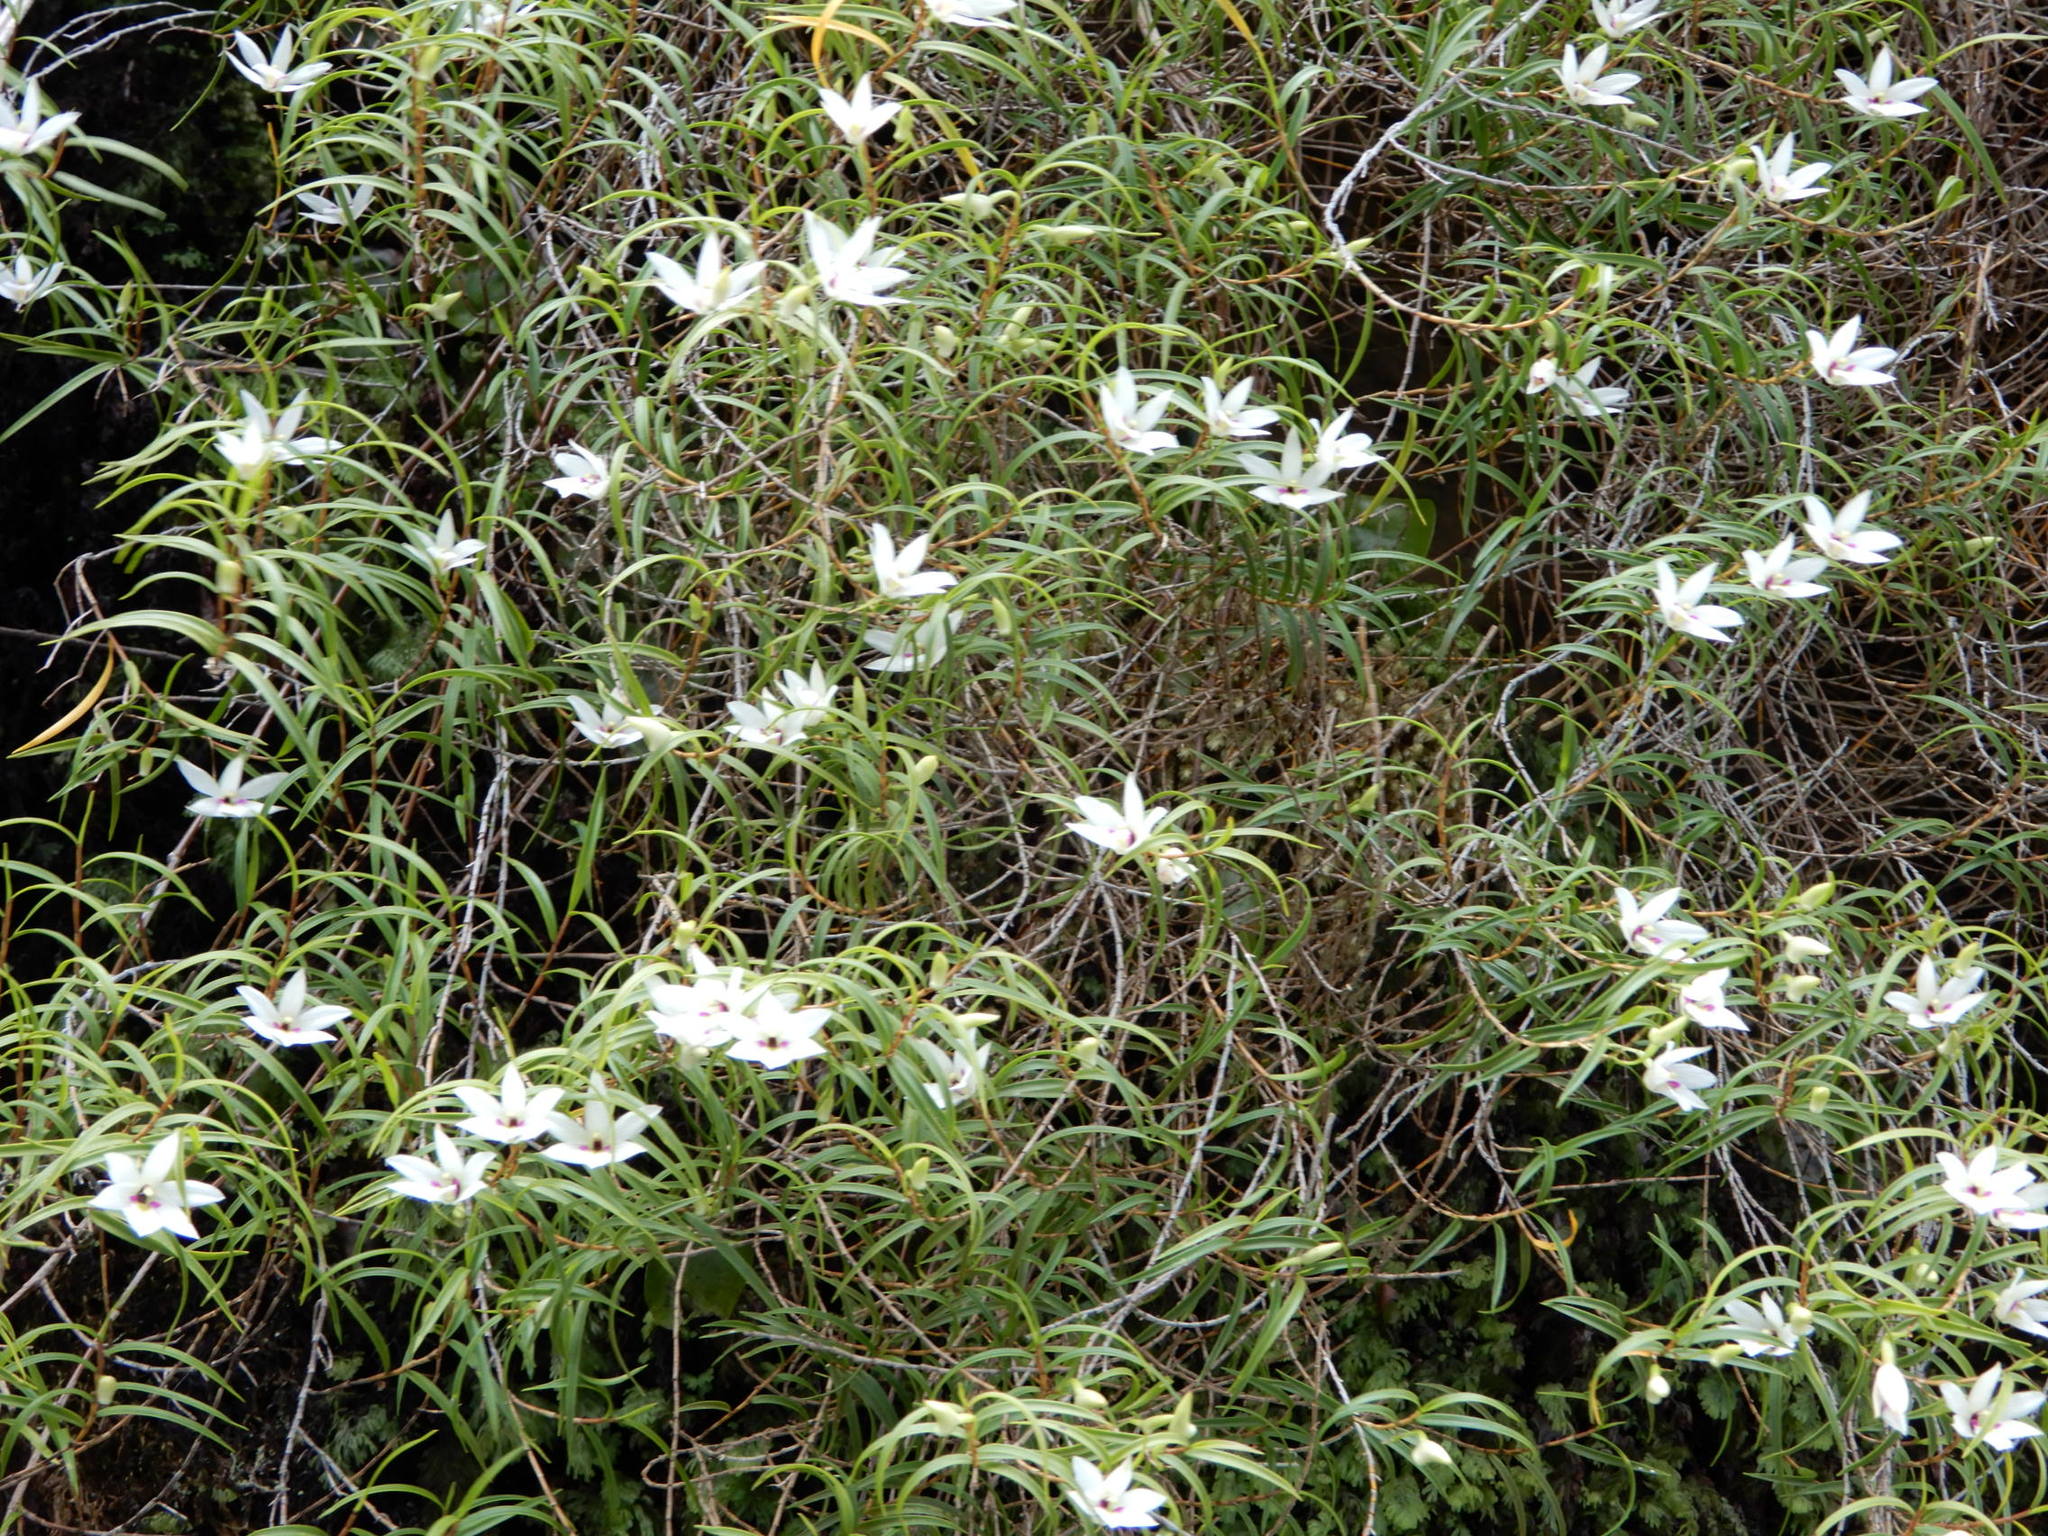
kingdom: Plantae
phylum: Tracheophyta
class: Liliopsida
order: Asparagales
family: Orchidaceae
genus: Dendrobium
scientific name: Dendrobium cunninghamii
